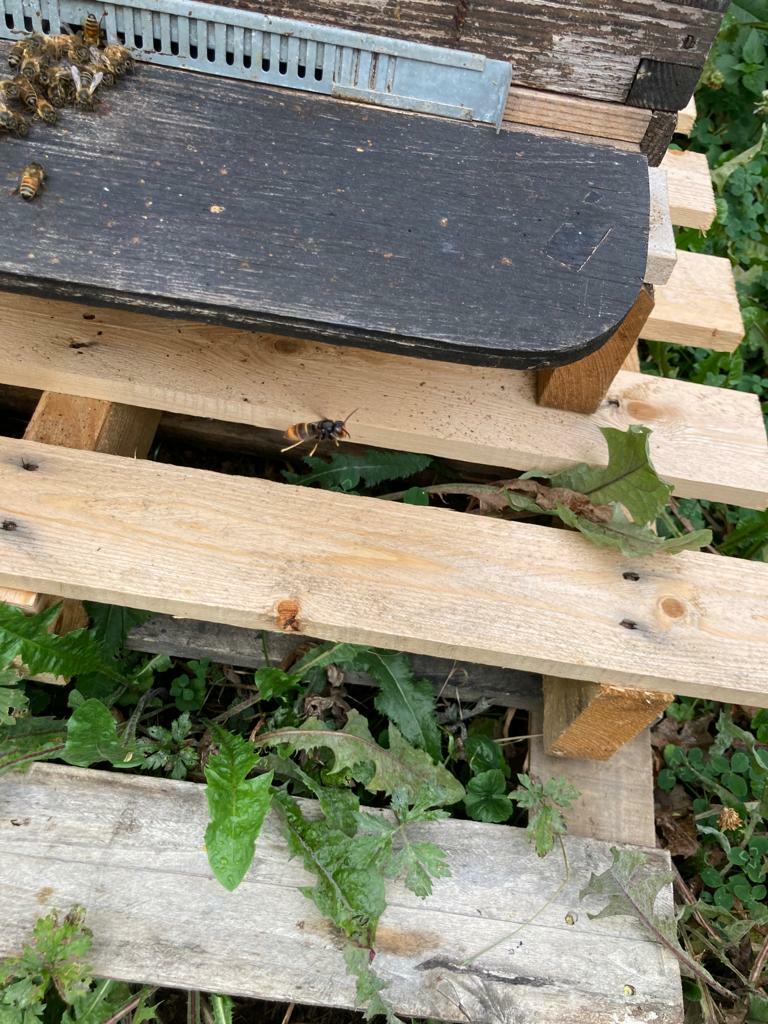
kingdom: Animalia
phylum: Arthropoda
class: Insecta
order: Hymenoptera
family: Vespidae
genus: Vespa
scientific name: Vespa velutina
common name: Asian hornet
